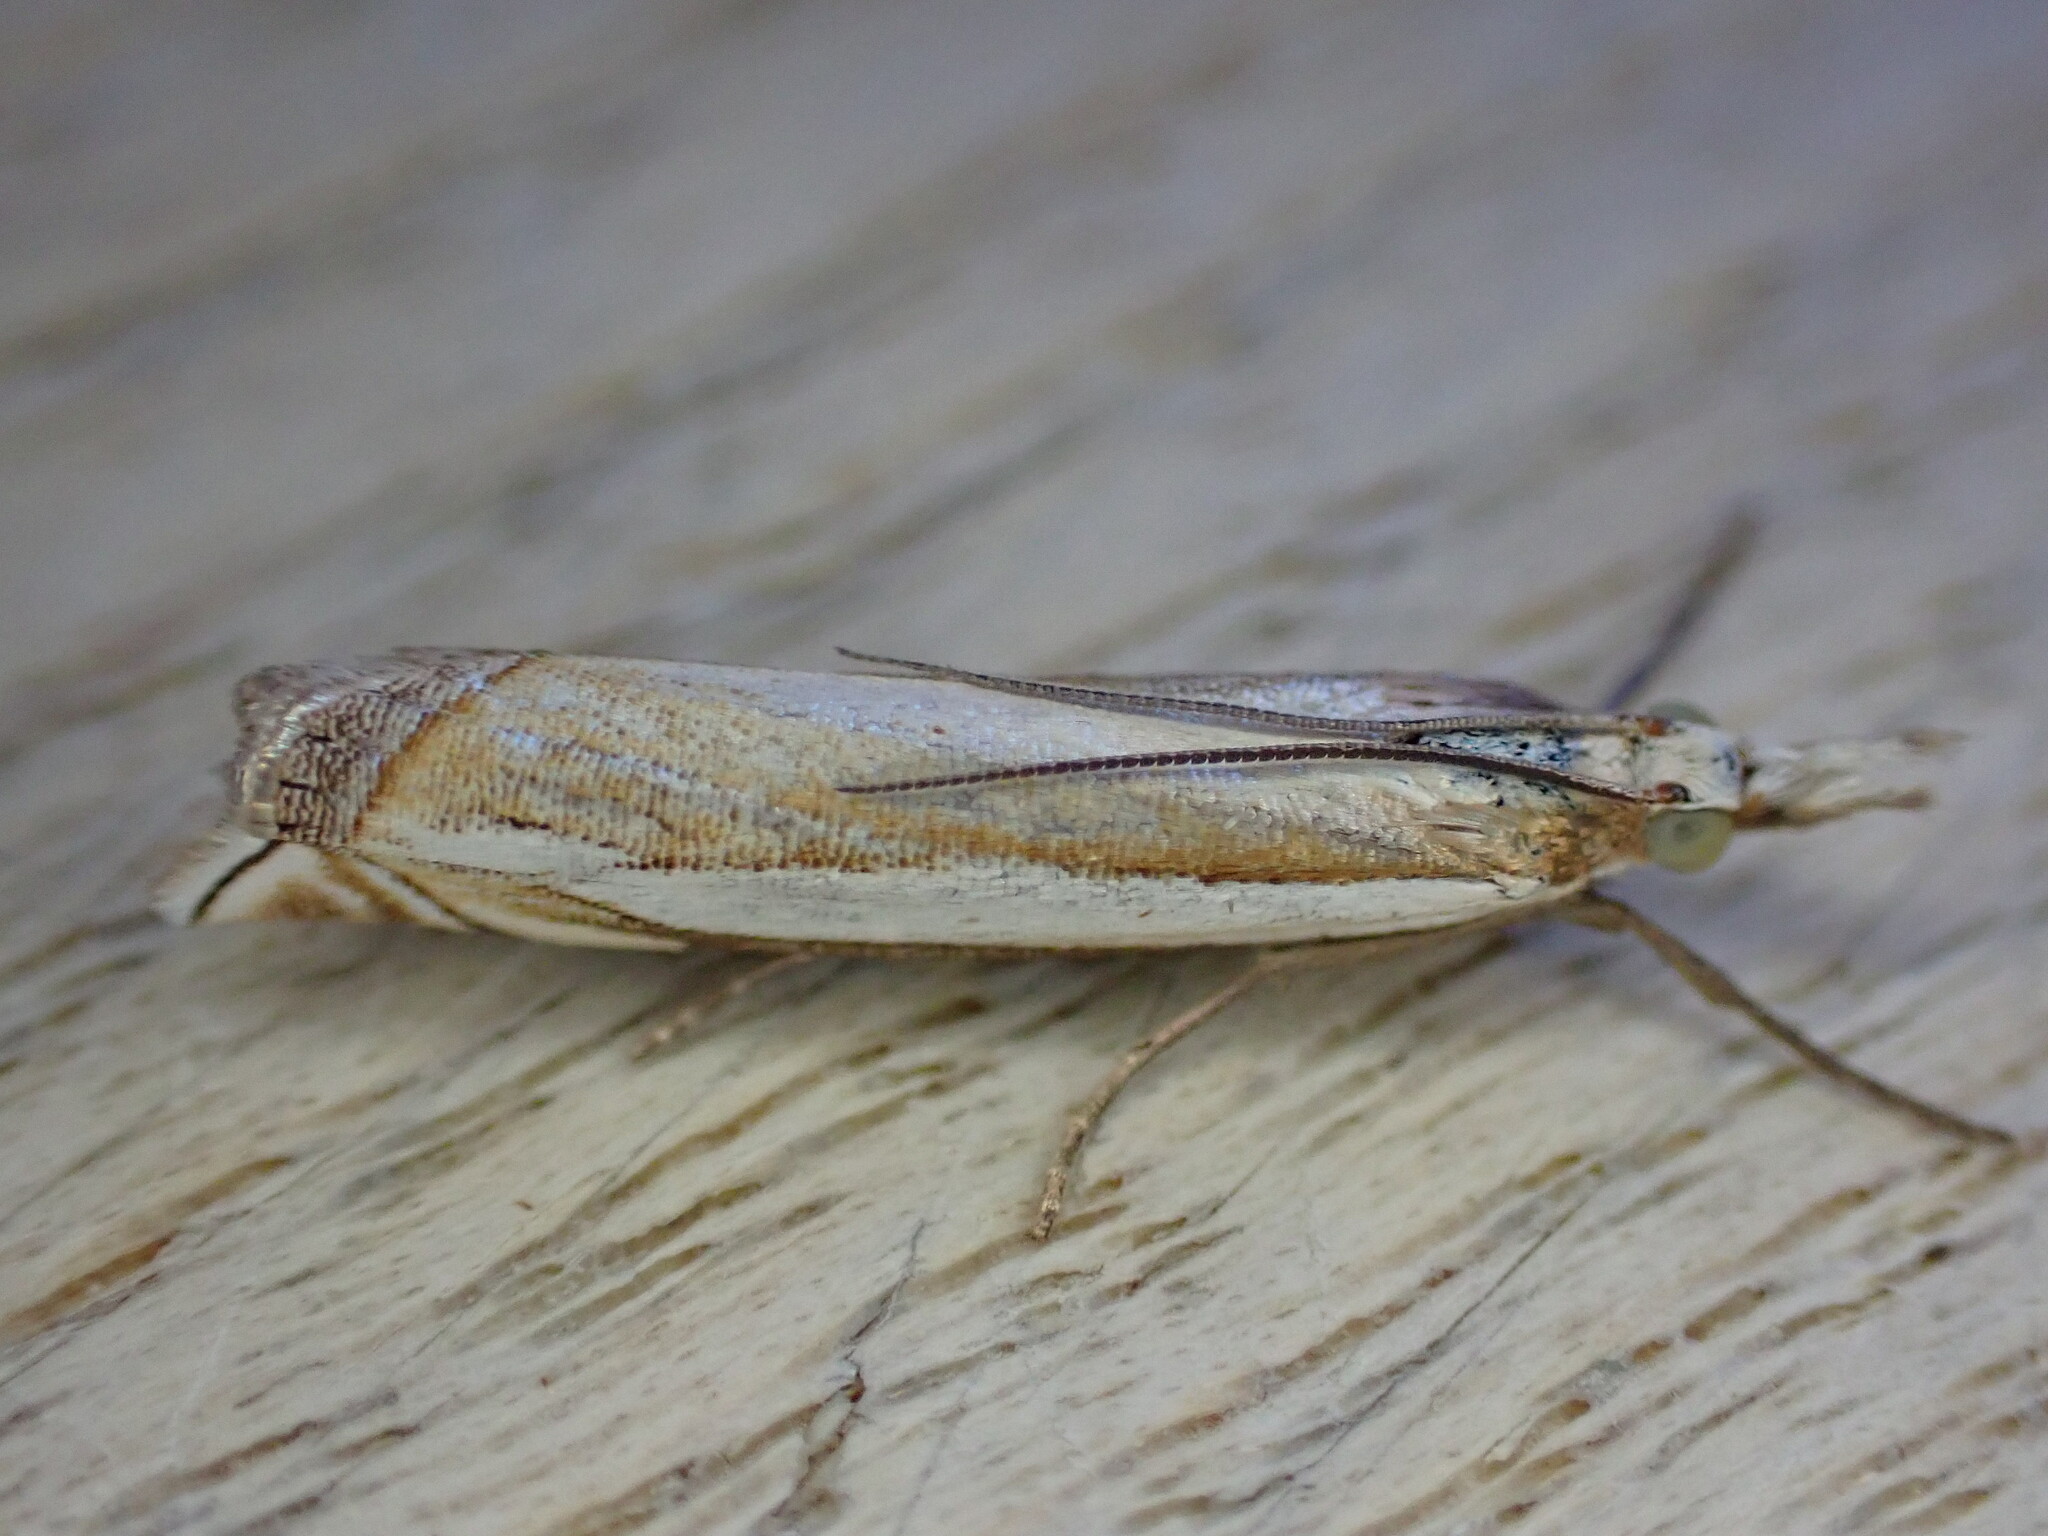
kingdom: Animalia
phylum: Arthropoda
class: Insecta
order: Lepidoptera
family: Crambidae
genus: Crambus
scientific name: Crambus pascuella
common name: Inlaid grass-veneer
